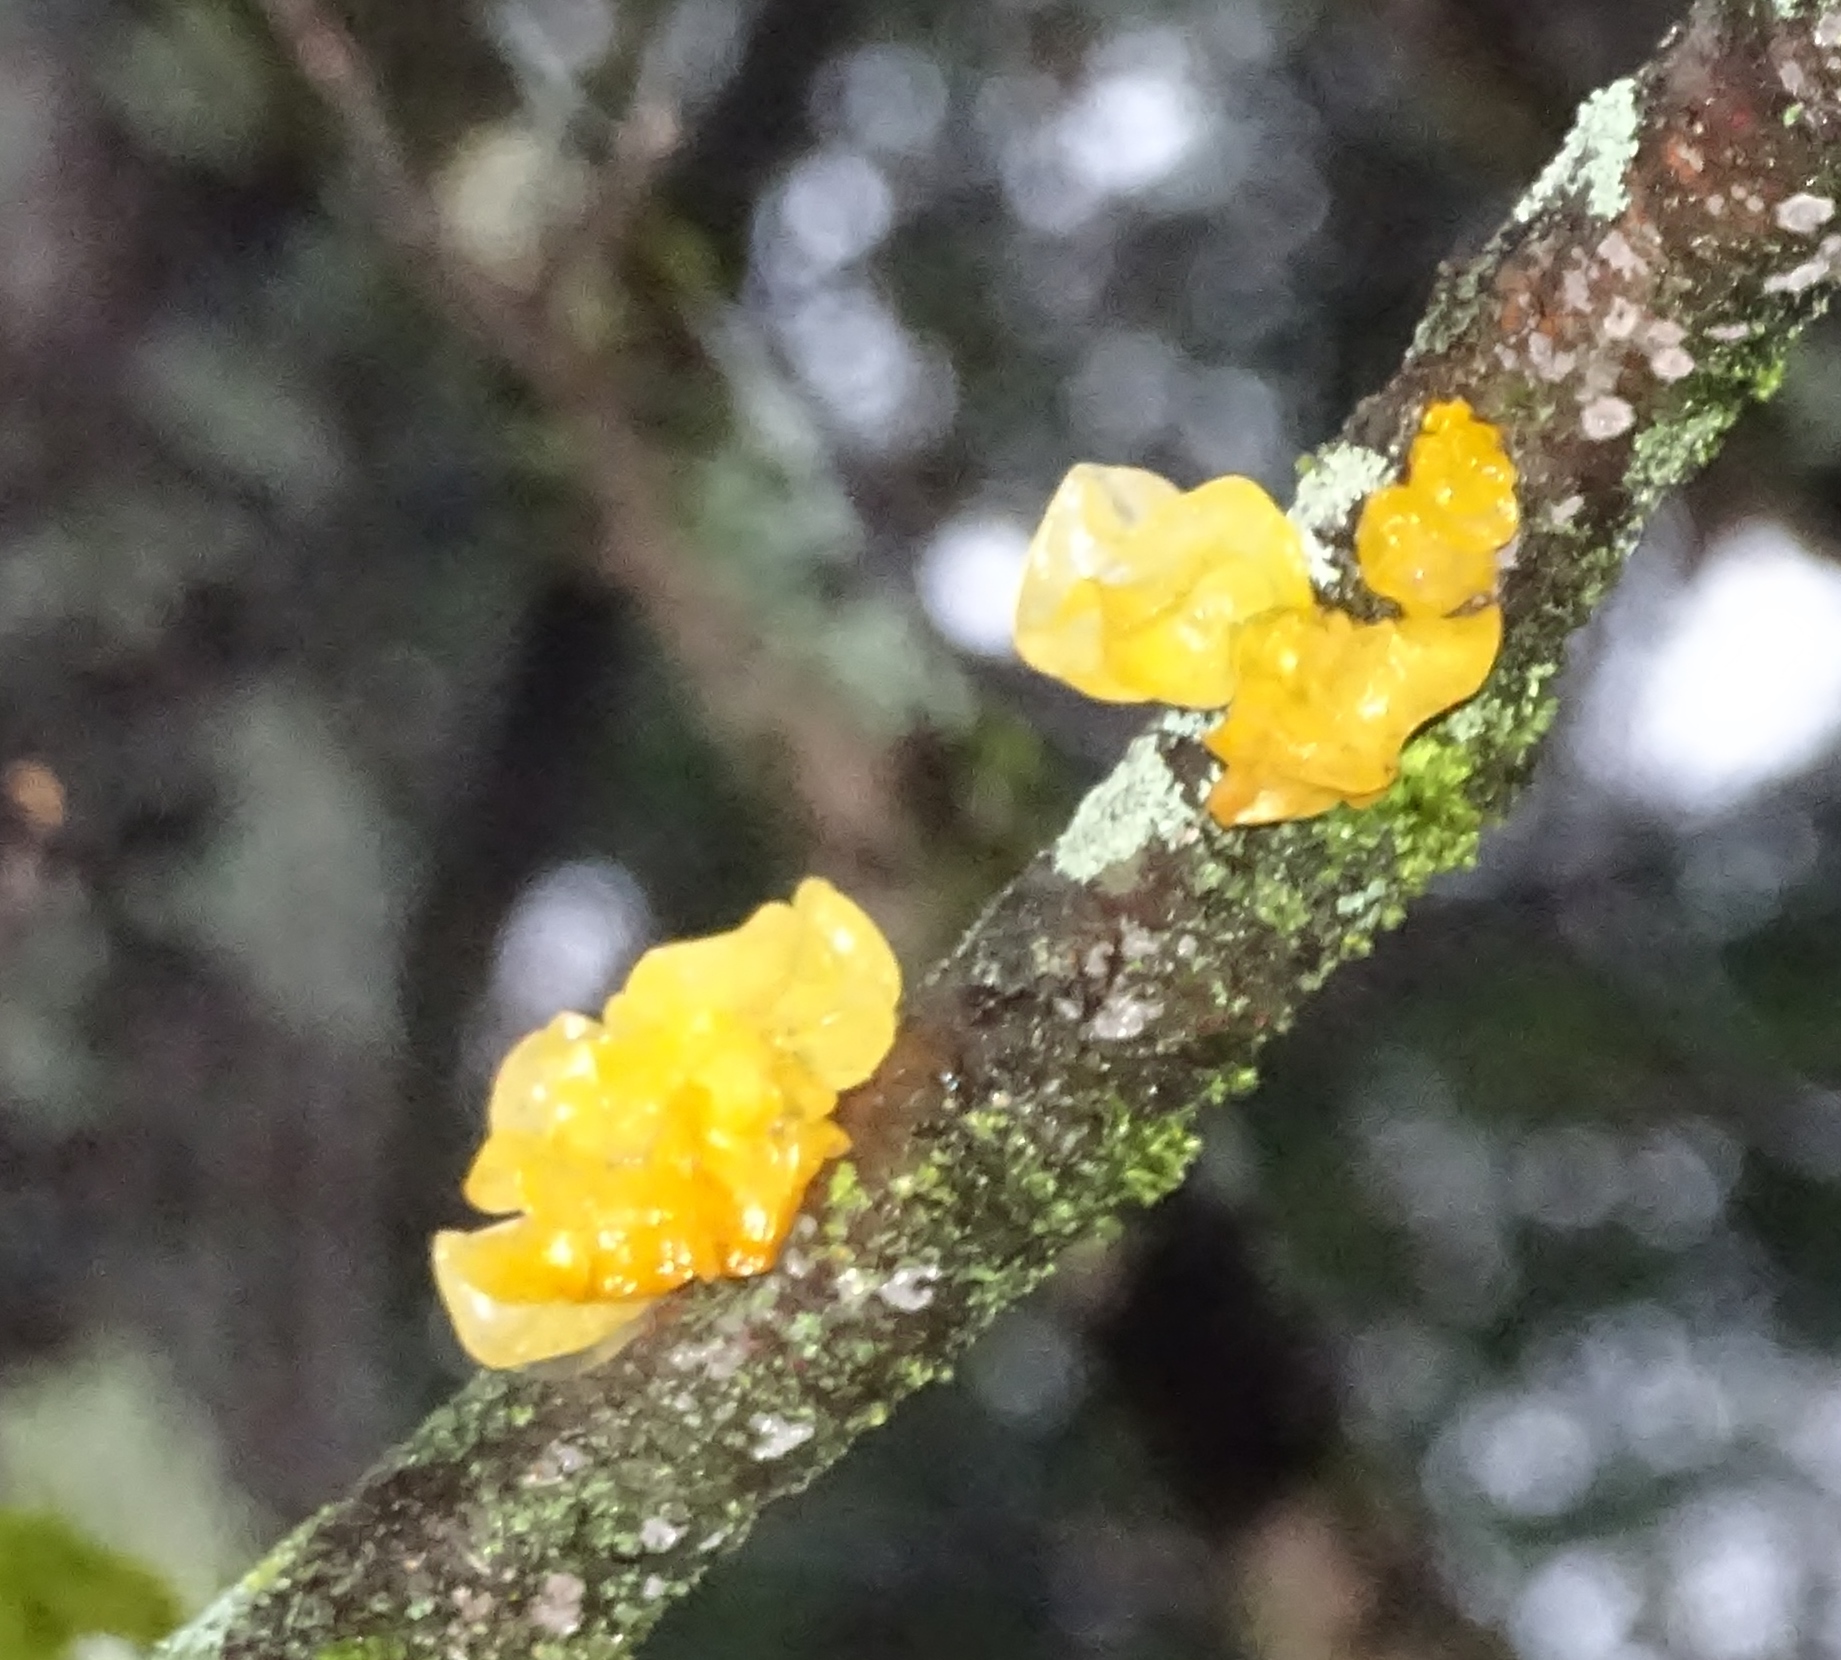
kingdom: Fungi
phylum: Basidiomycota
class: Dacrymycetes
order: Dacrymycetales
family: Dacrymycetaceae
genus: Dacrymyces
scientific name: Dacrymyces chrysospermus
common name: Orange jelly spot
